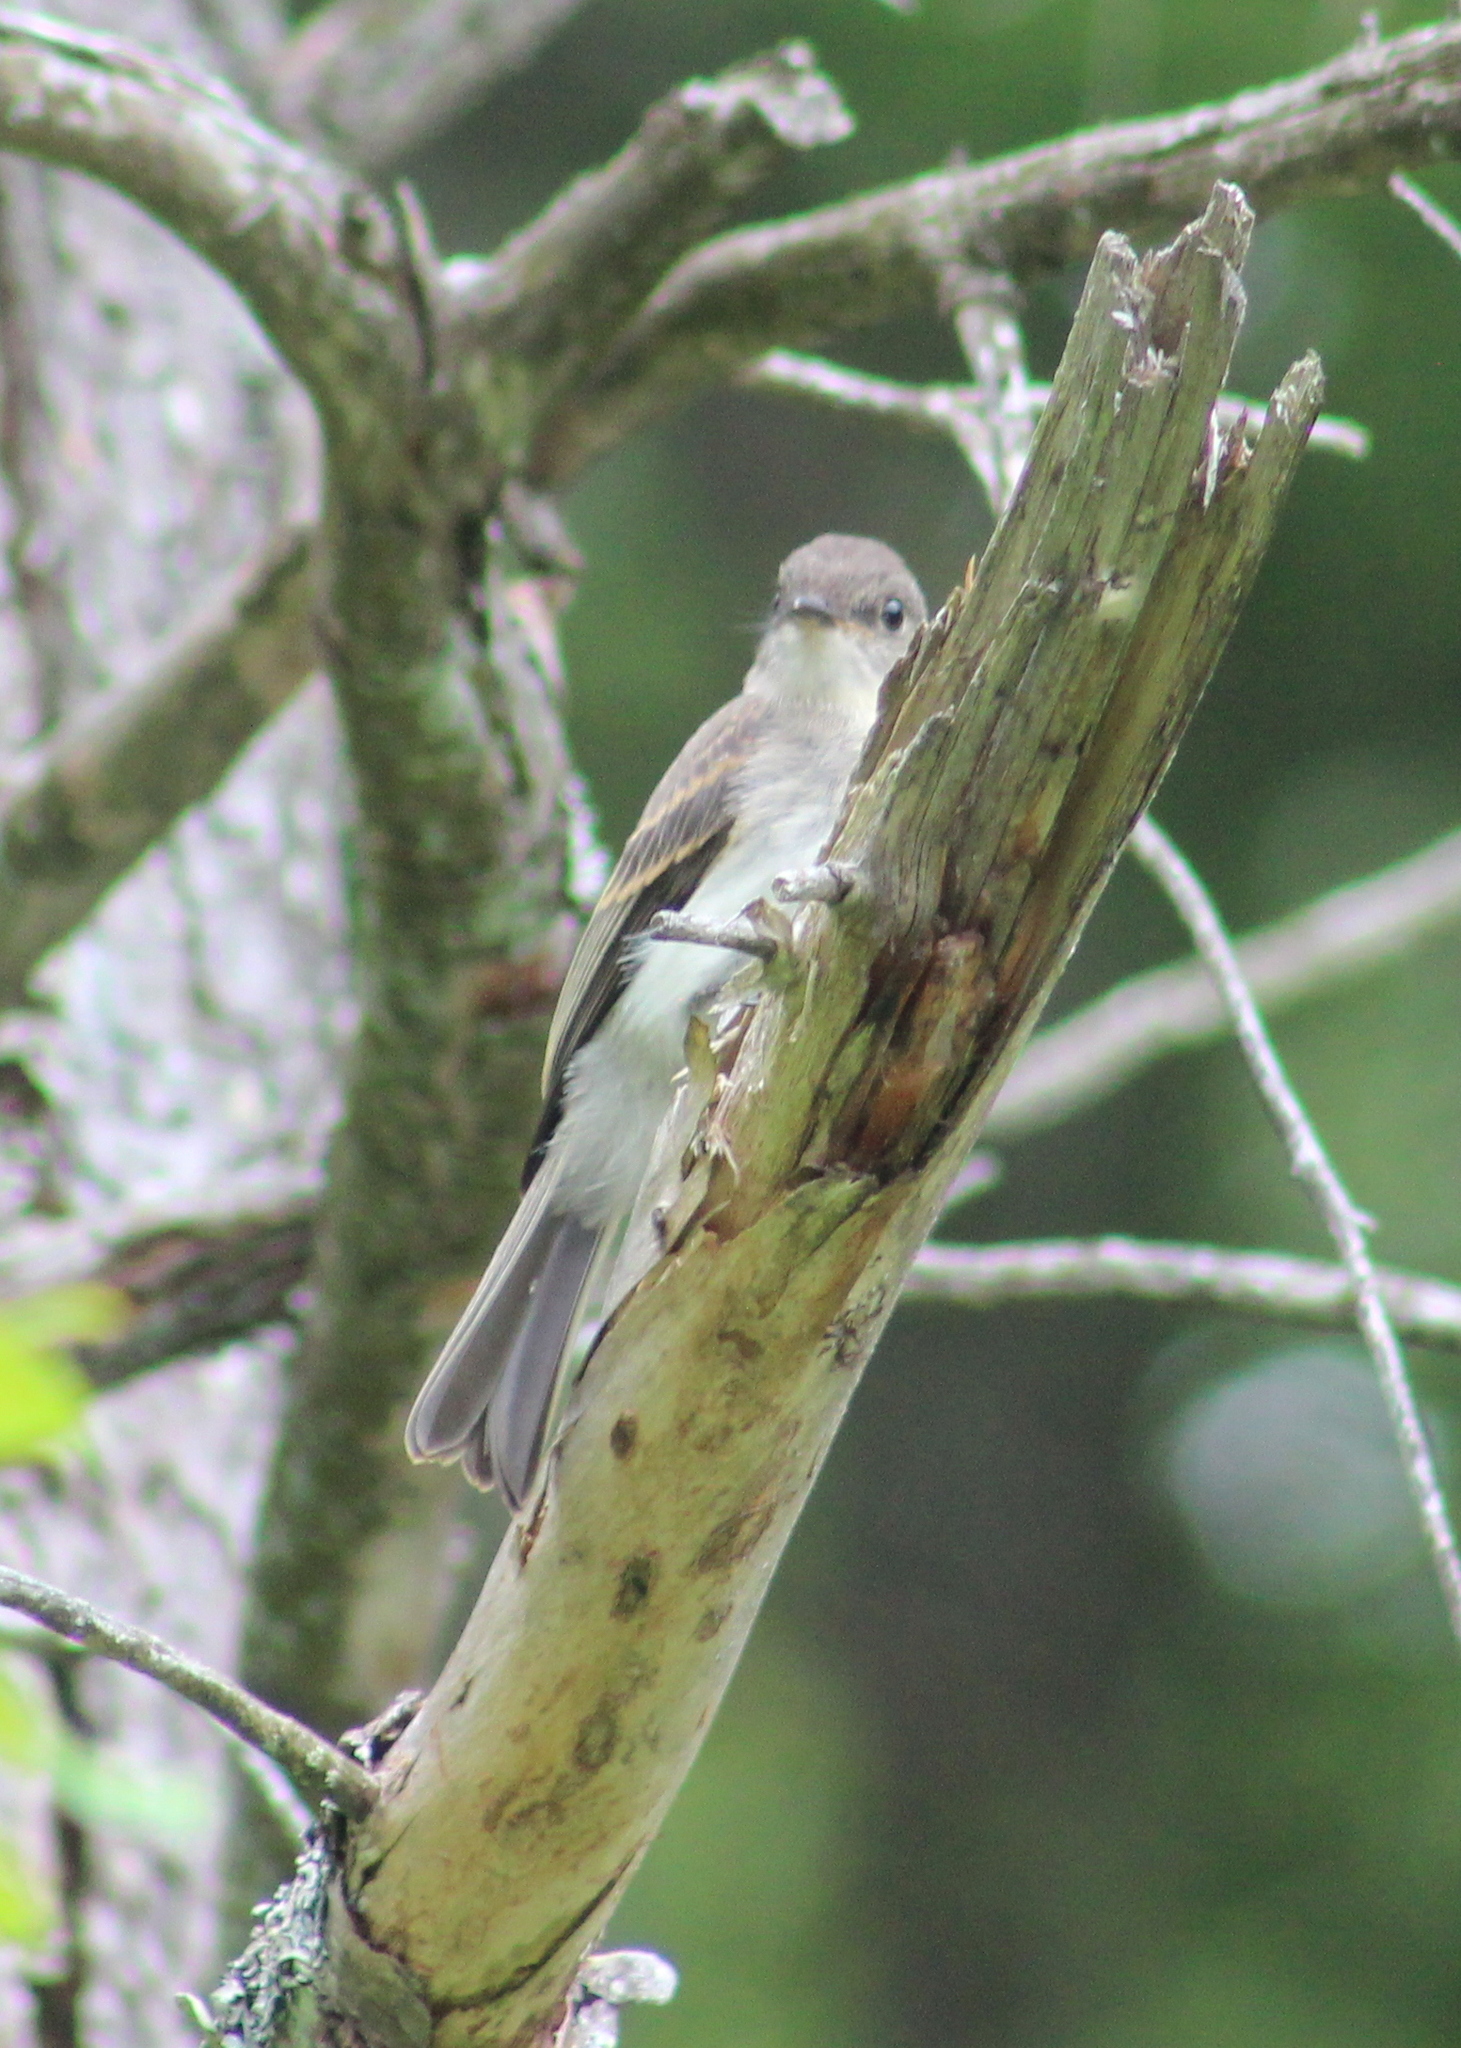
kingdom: Animalia
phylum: Chordata
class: Aves
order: Passeriformes
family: Tyrannidae
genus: Sayornis
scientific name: Sayornis phoebe
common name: Eastern phoebe
